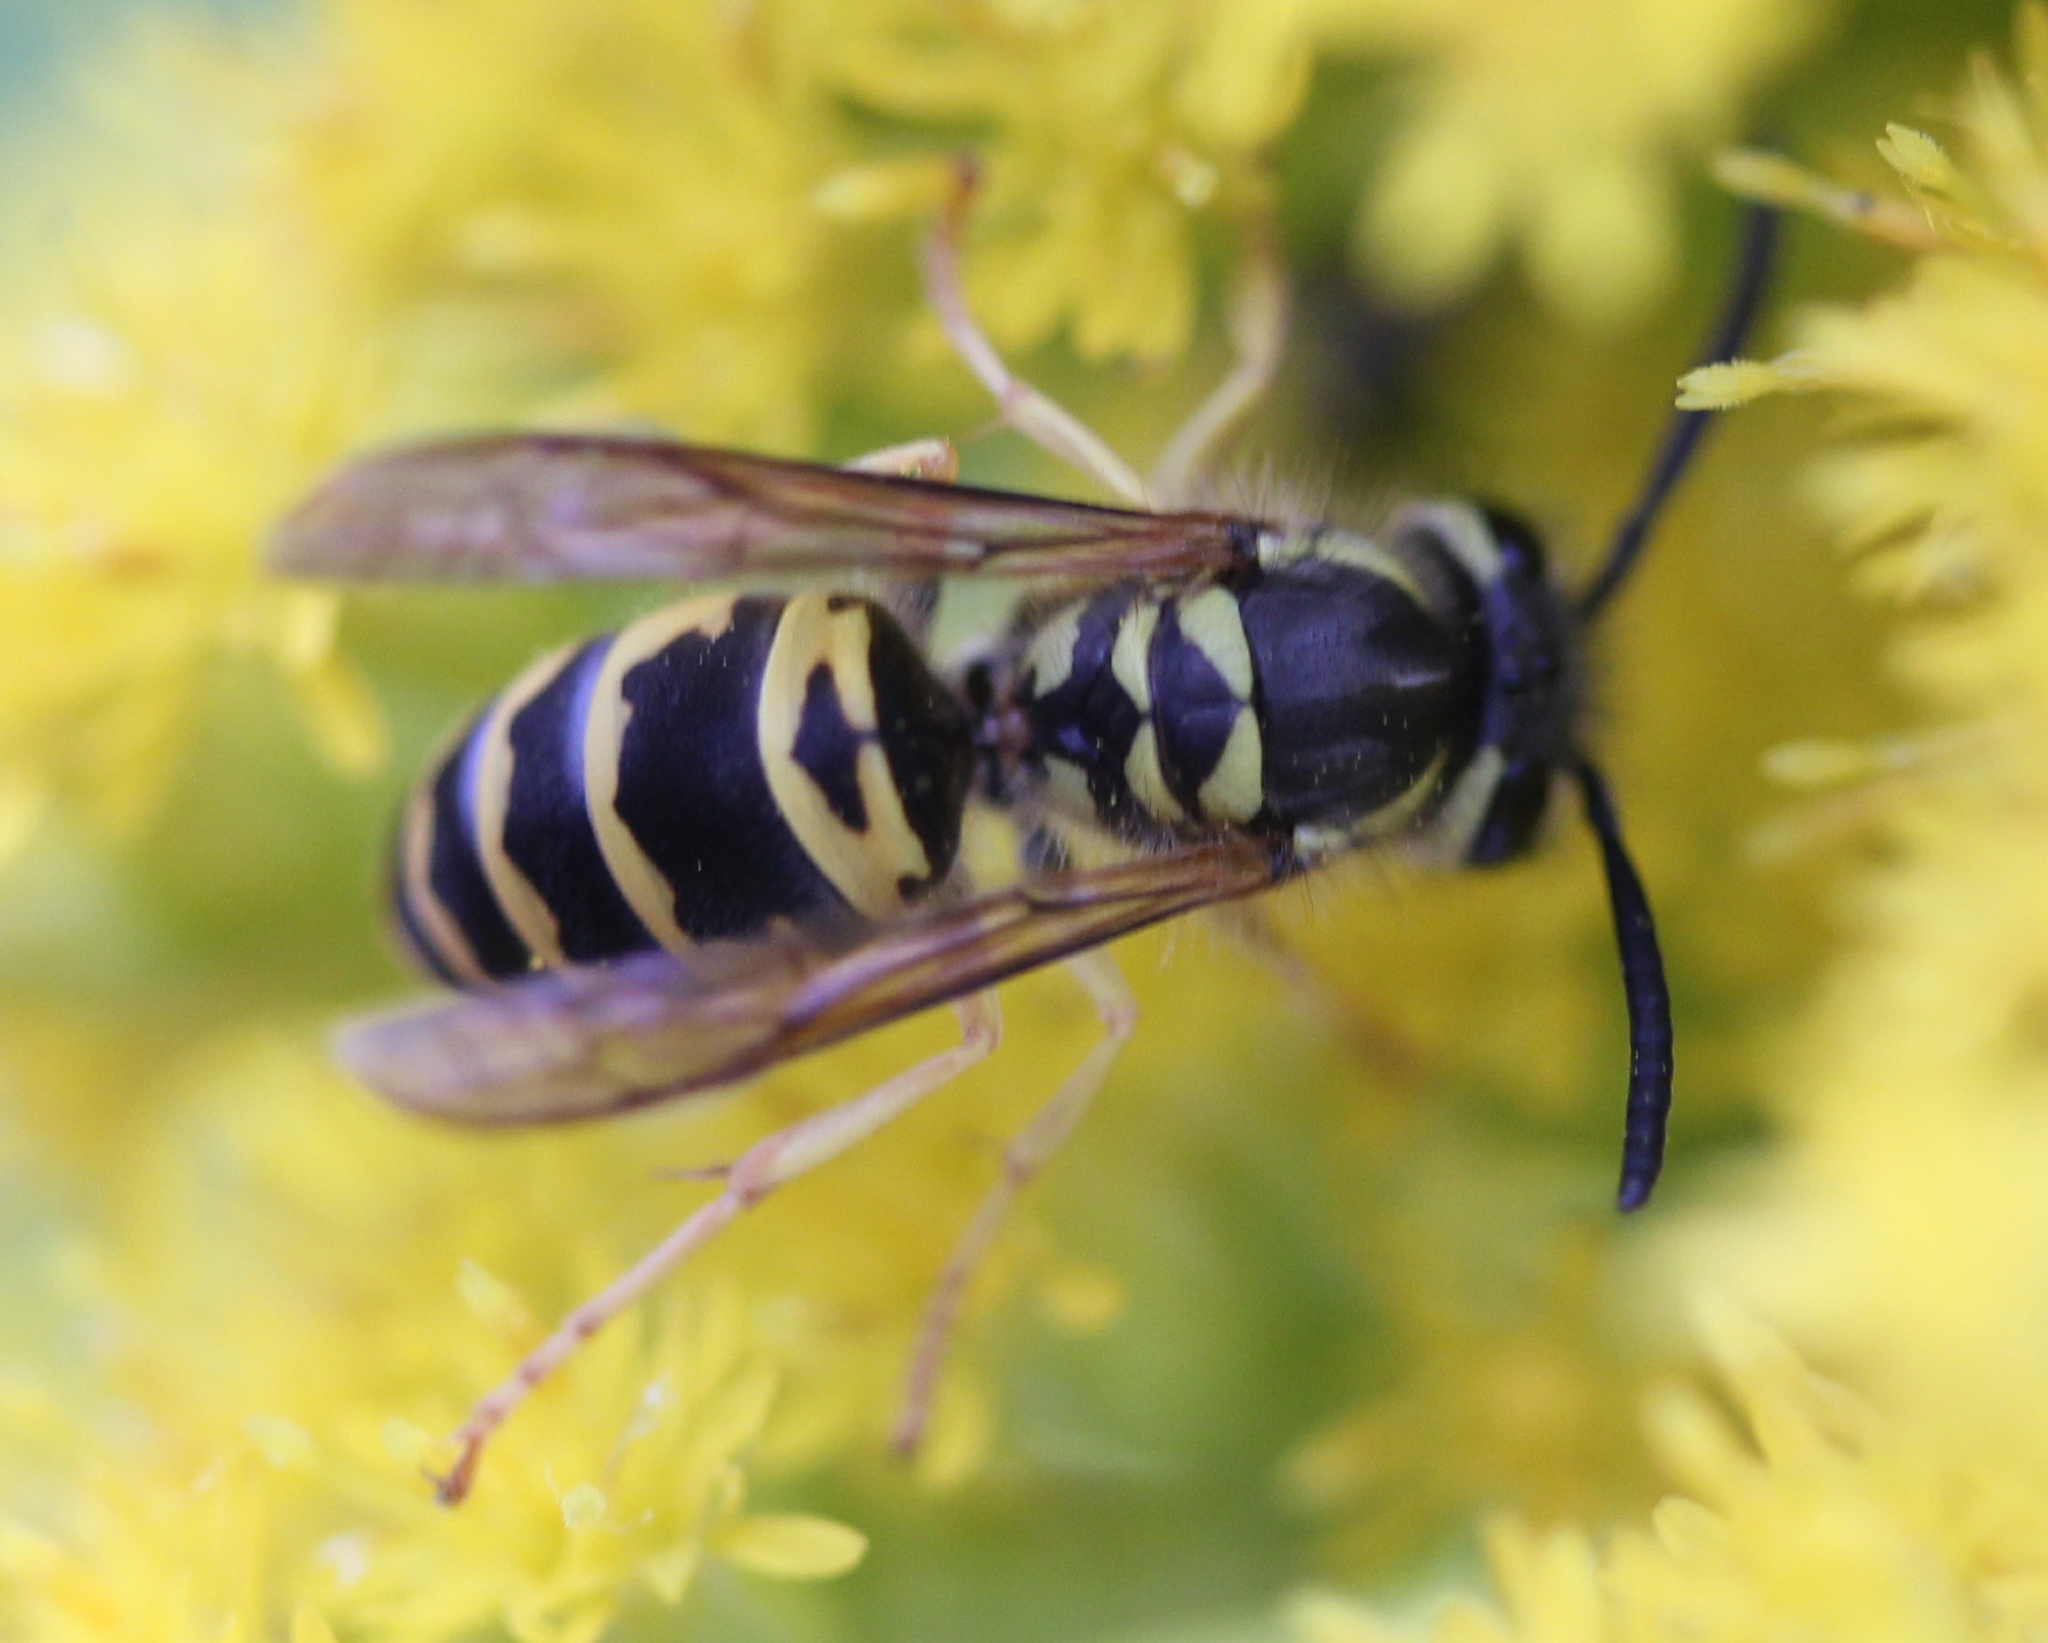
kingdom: Animalia
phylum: Arthropoda
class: Insecta
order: Hymenoptera
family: Vespidae
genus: Vespula
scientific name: Vespula maculifrons
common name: Eastern yellowjacket
